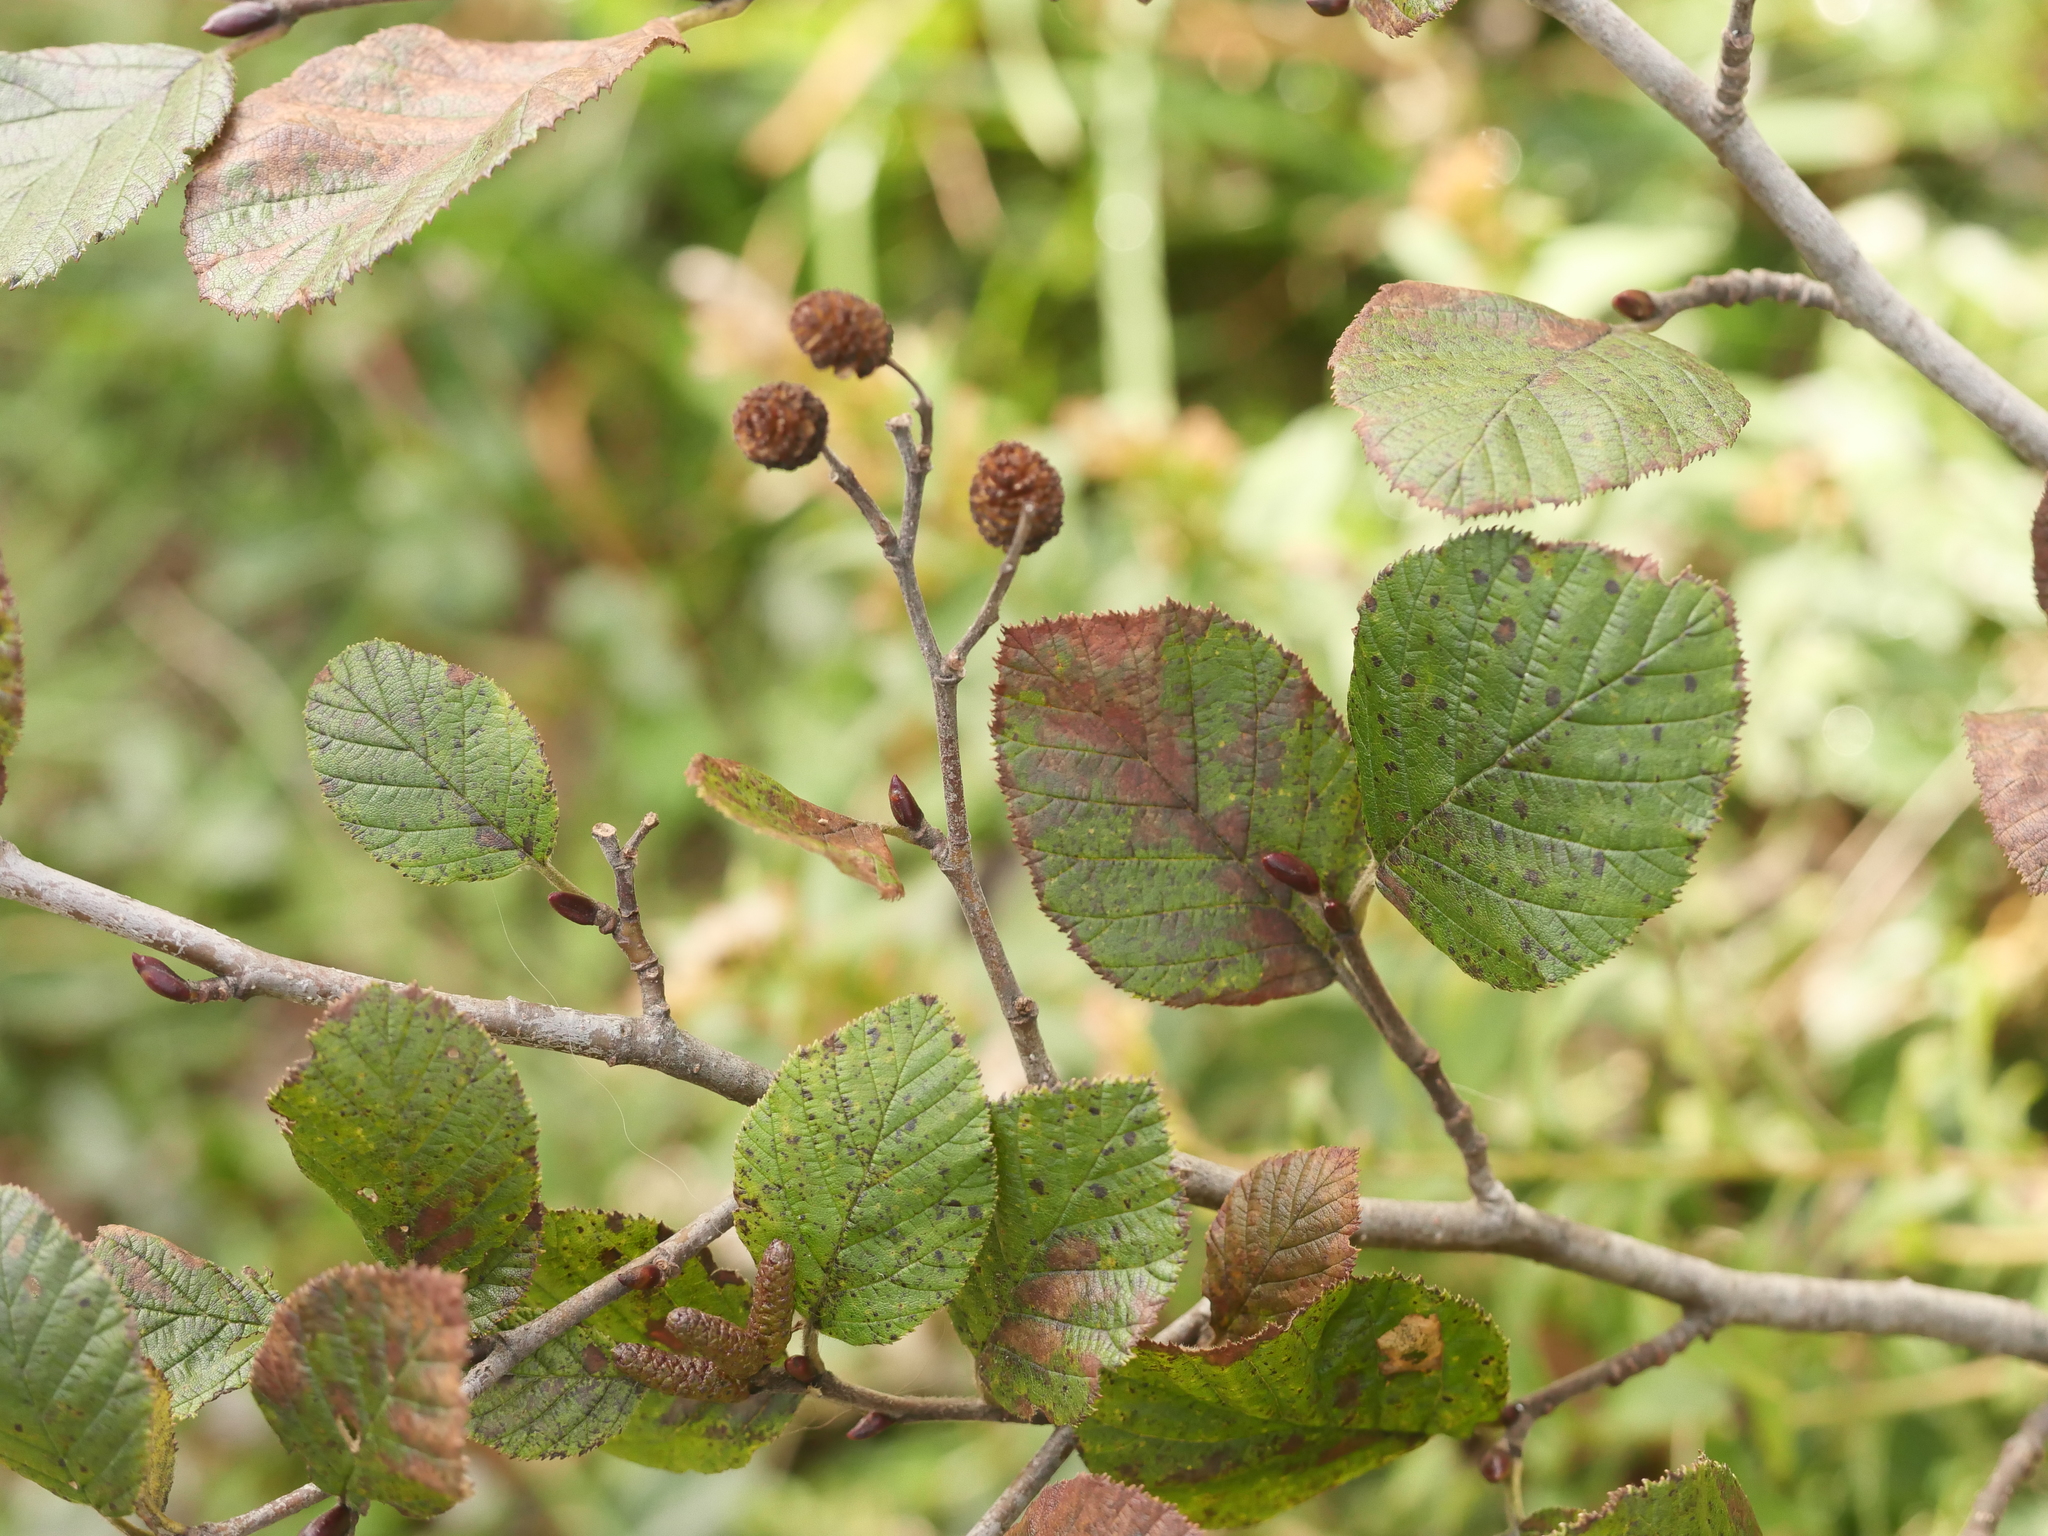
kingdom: Plantae
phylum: Tracheophyta
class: Magnoliopsida
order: Fagales
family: Betulaceae
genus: Alnus
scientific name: Alnus alnobetula
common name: Green alder
